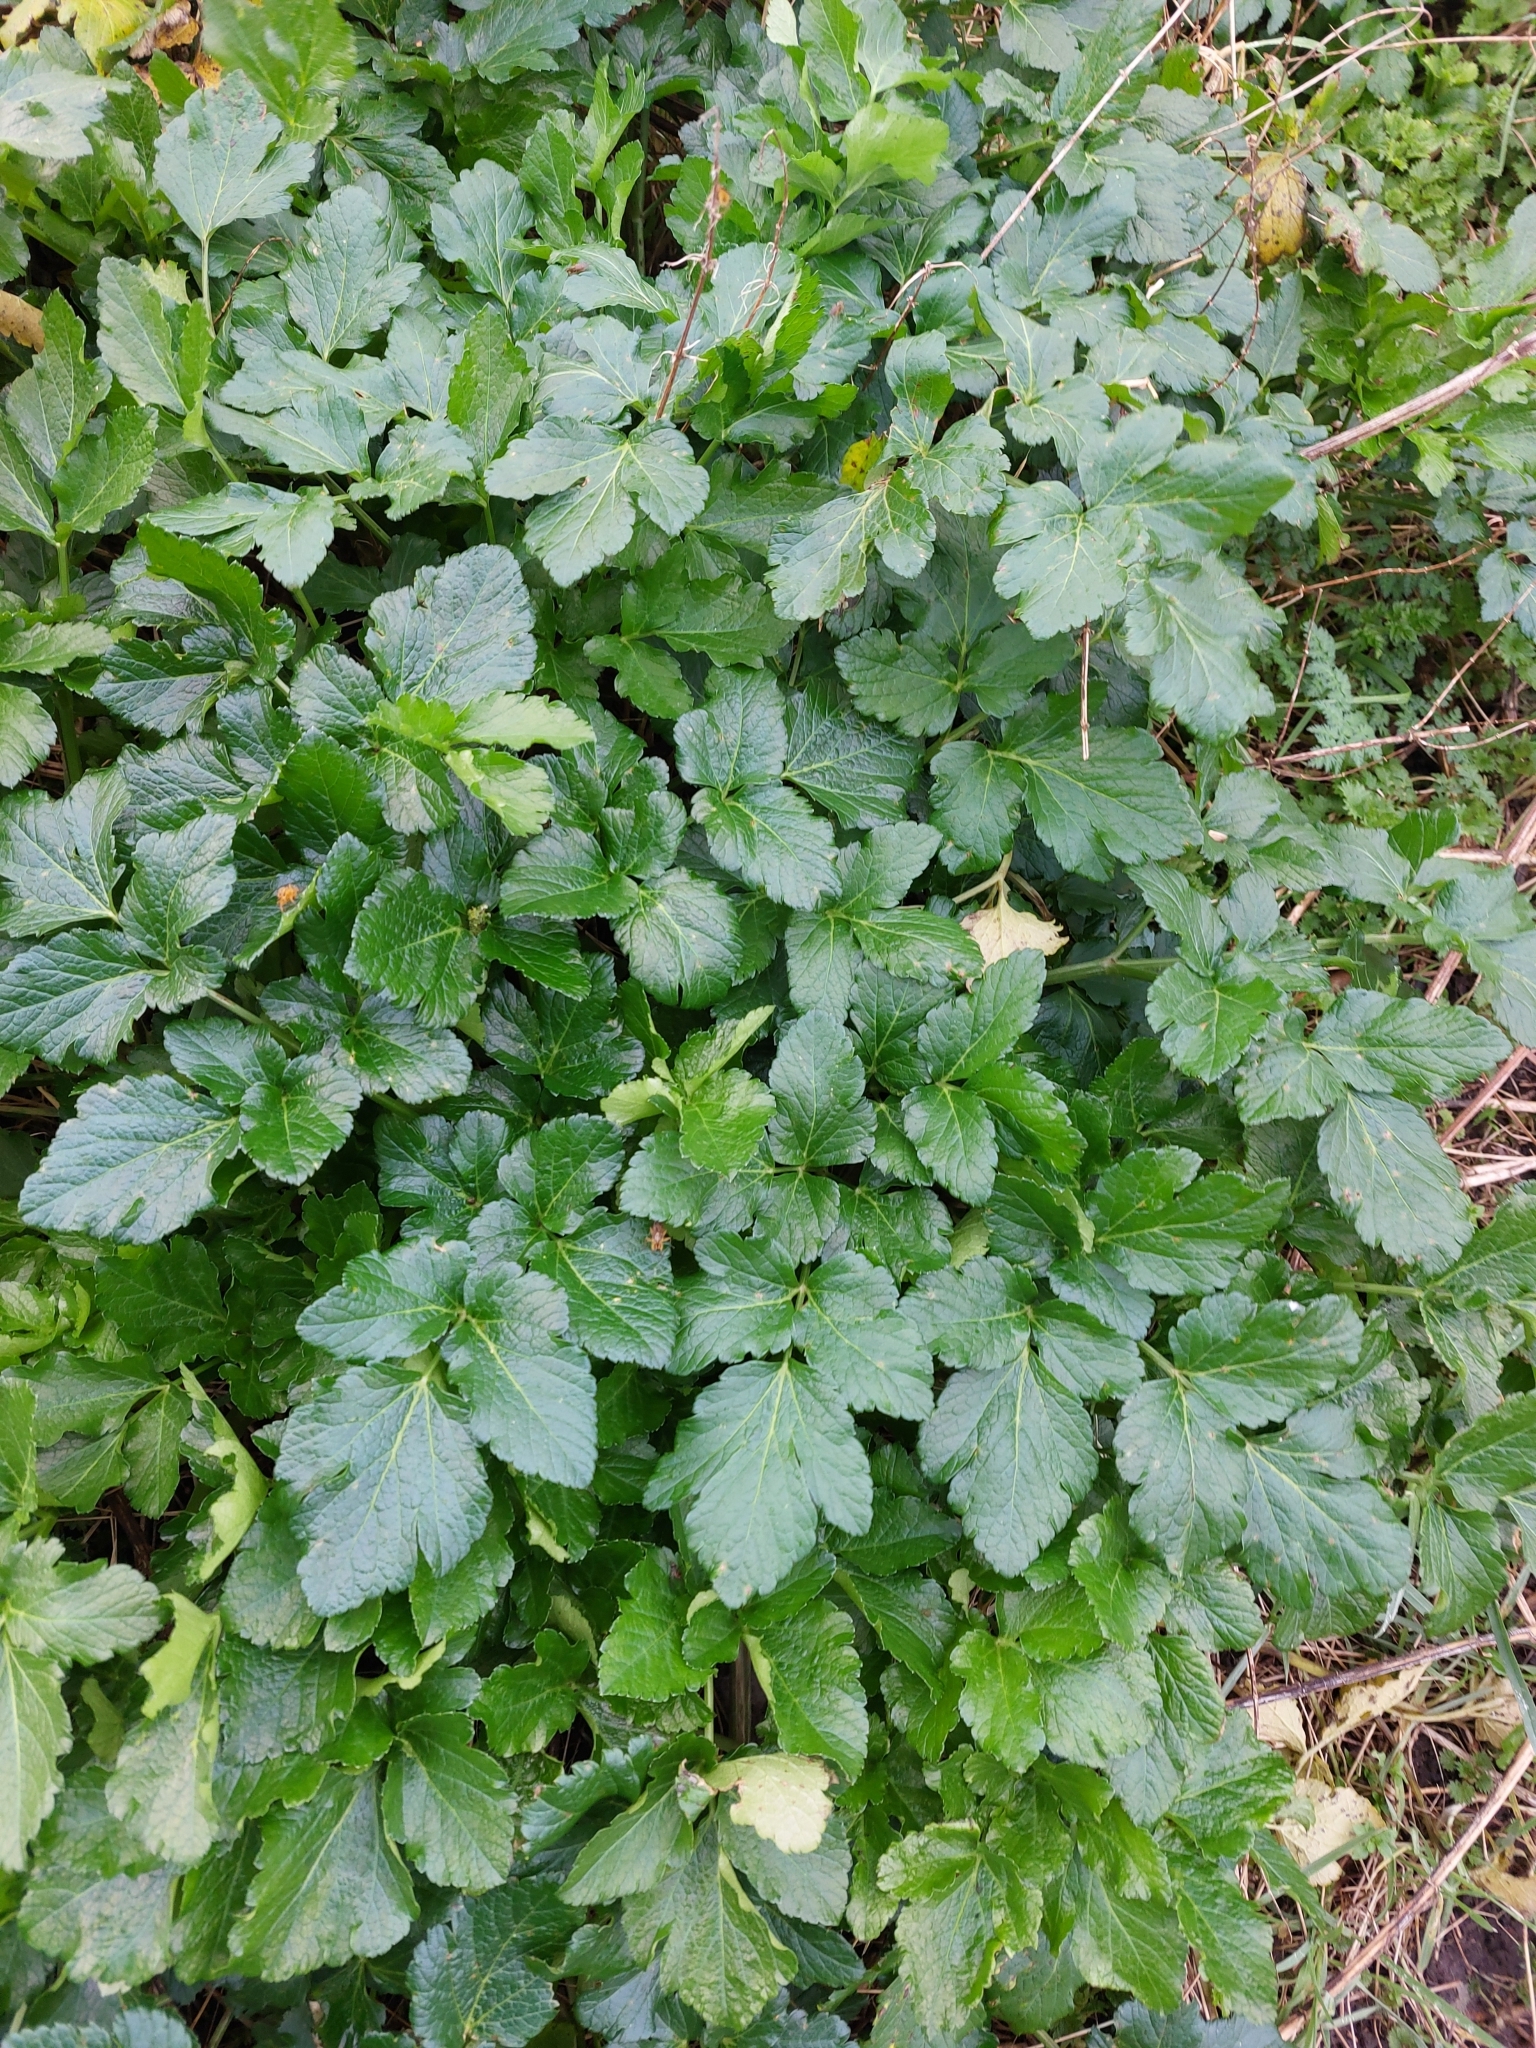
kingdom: Plantae
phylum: Tracheophyta
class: Magnoliopsida
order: Apiales
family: Apiaceae
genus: Smyrnium
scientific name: Smyrnium olusatrum
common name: Alexanders
